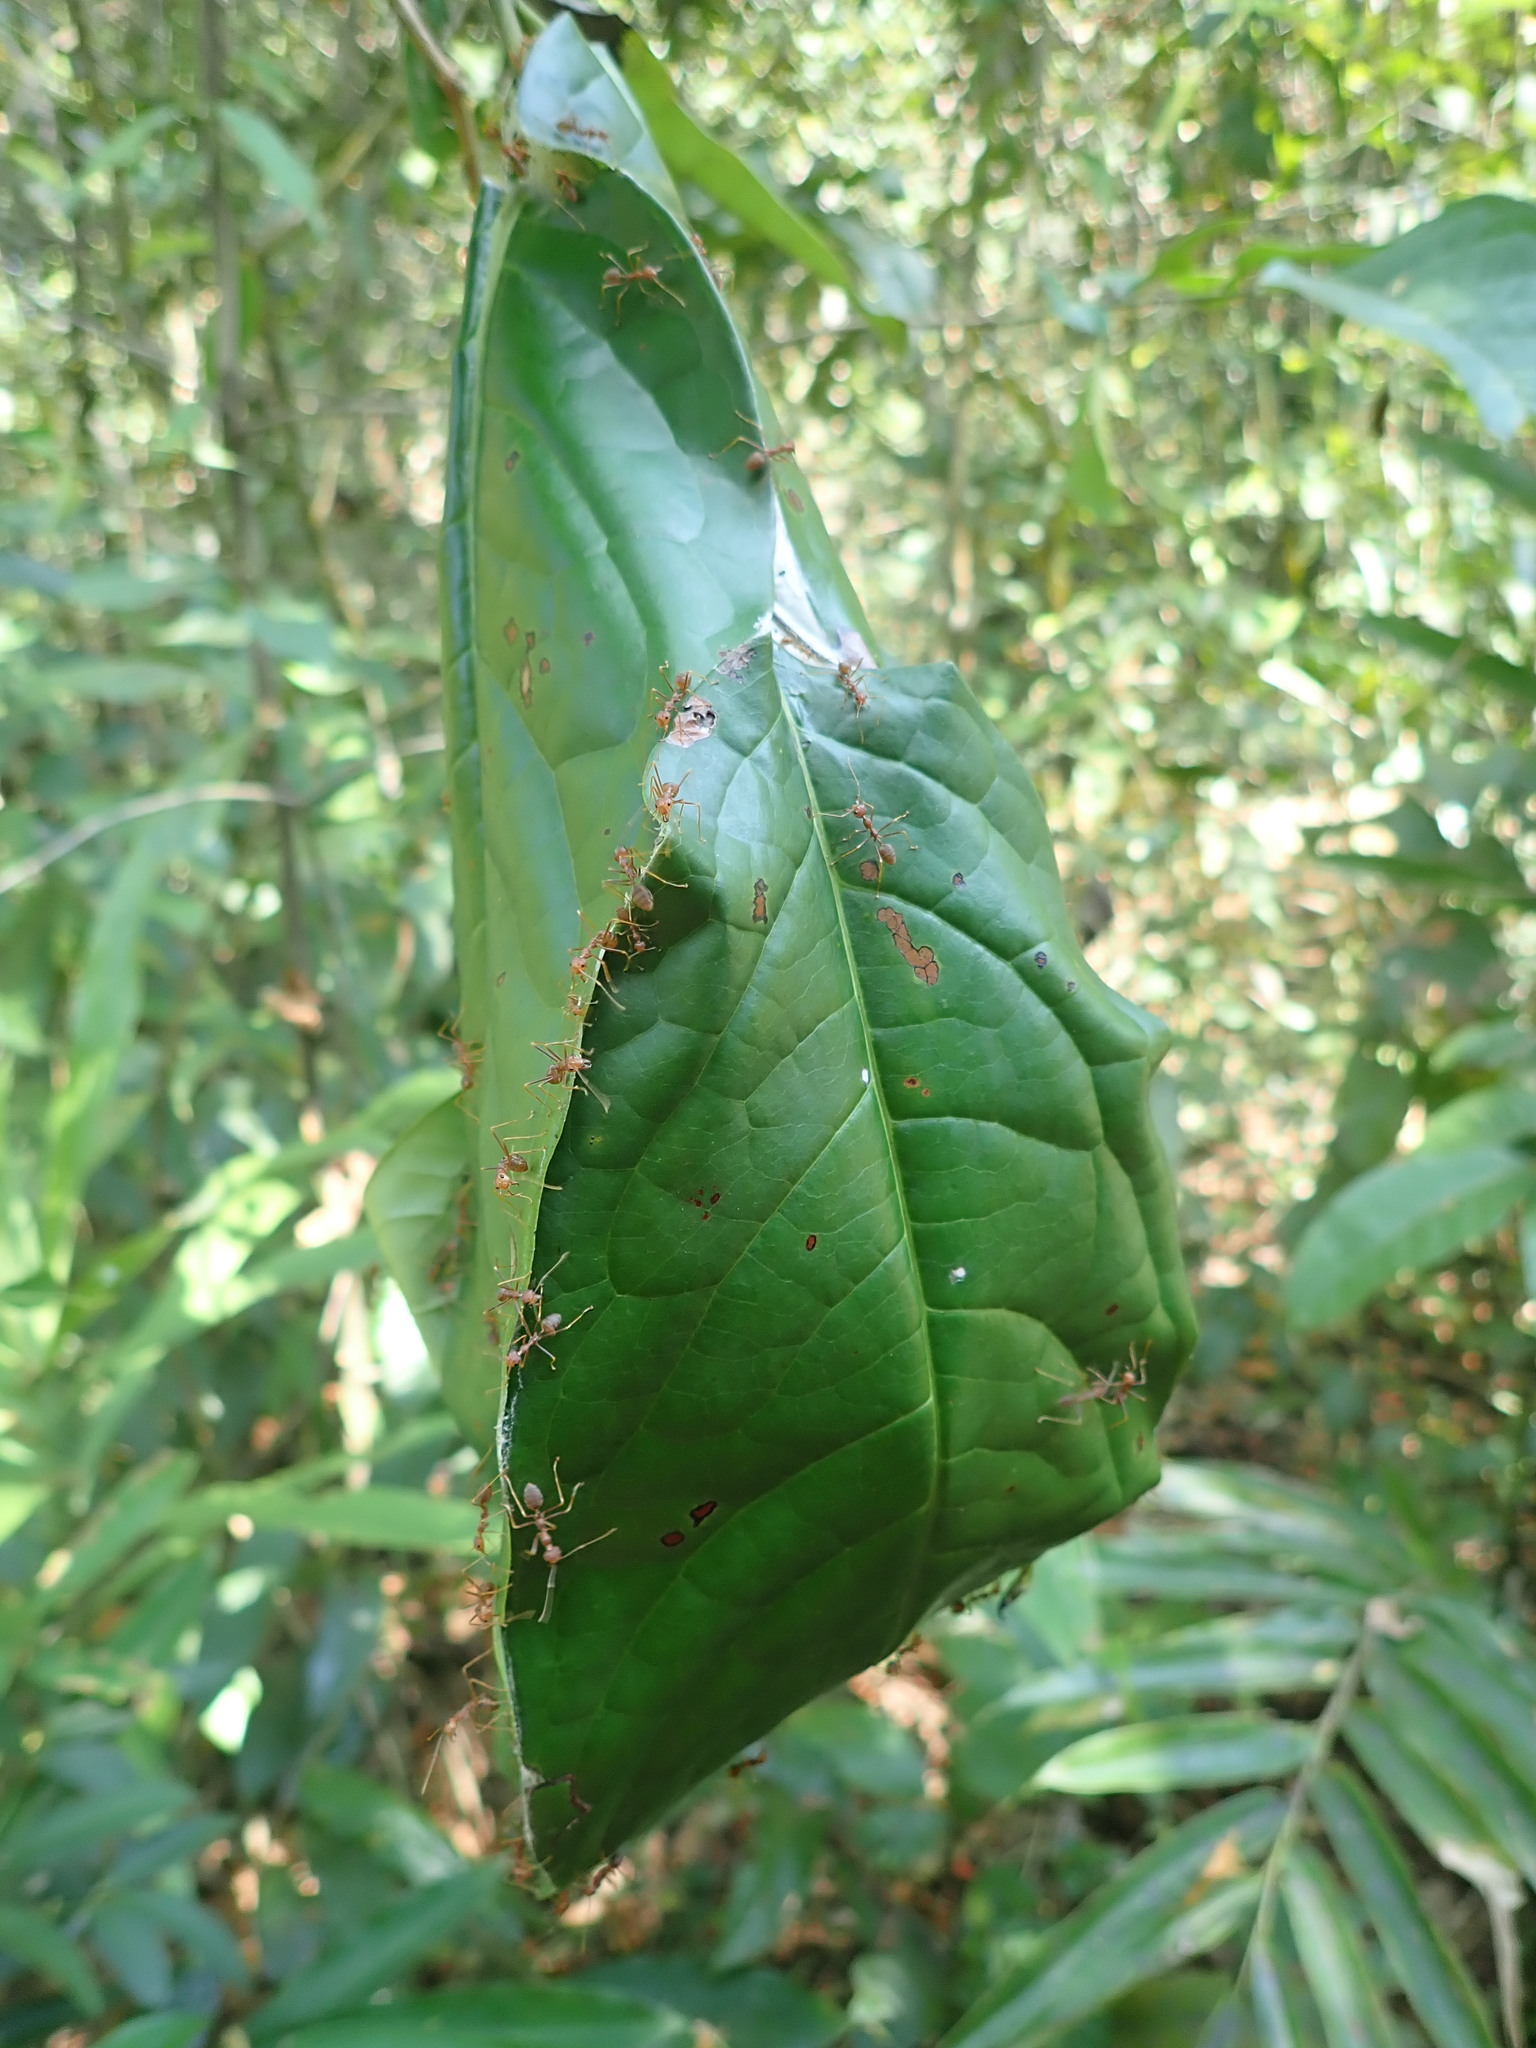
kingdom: Animalia
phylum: Arthropoda
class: Insecta
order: Hymenoptera
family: Formicidae
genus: Oecophylla
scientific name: Oecophylla smaragdina
